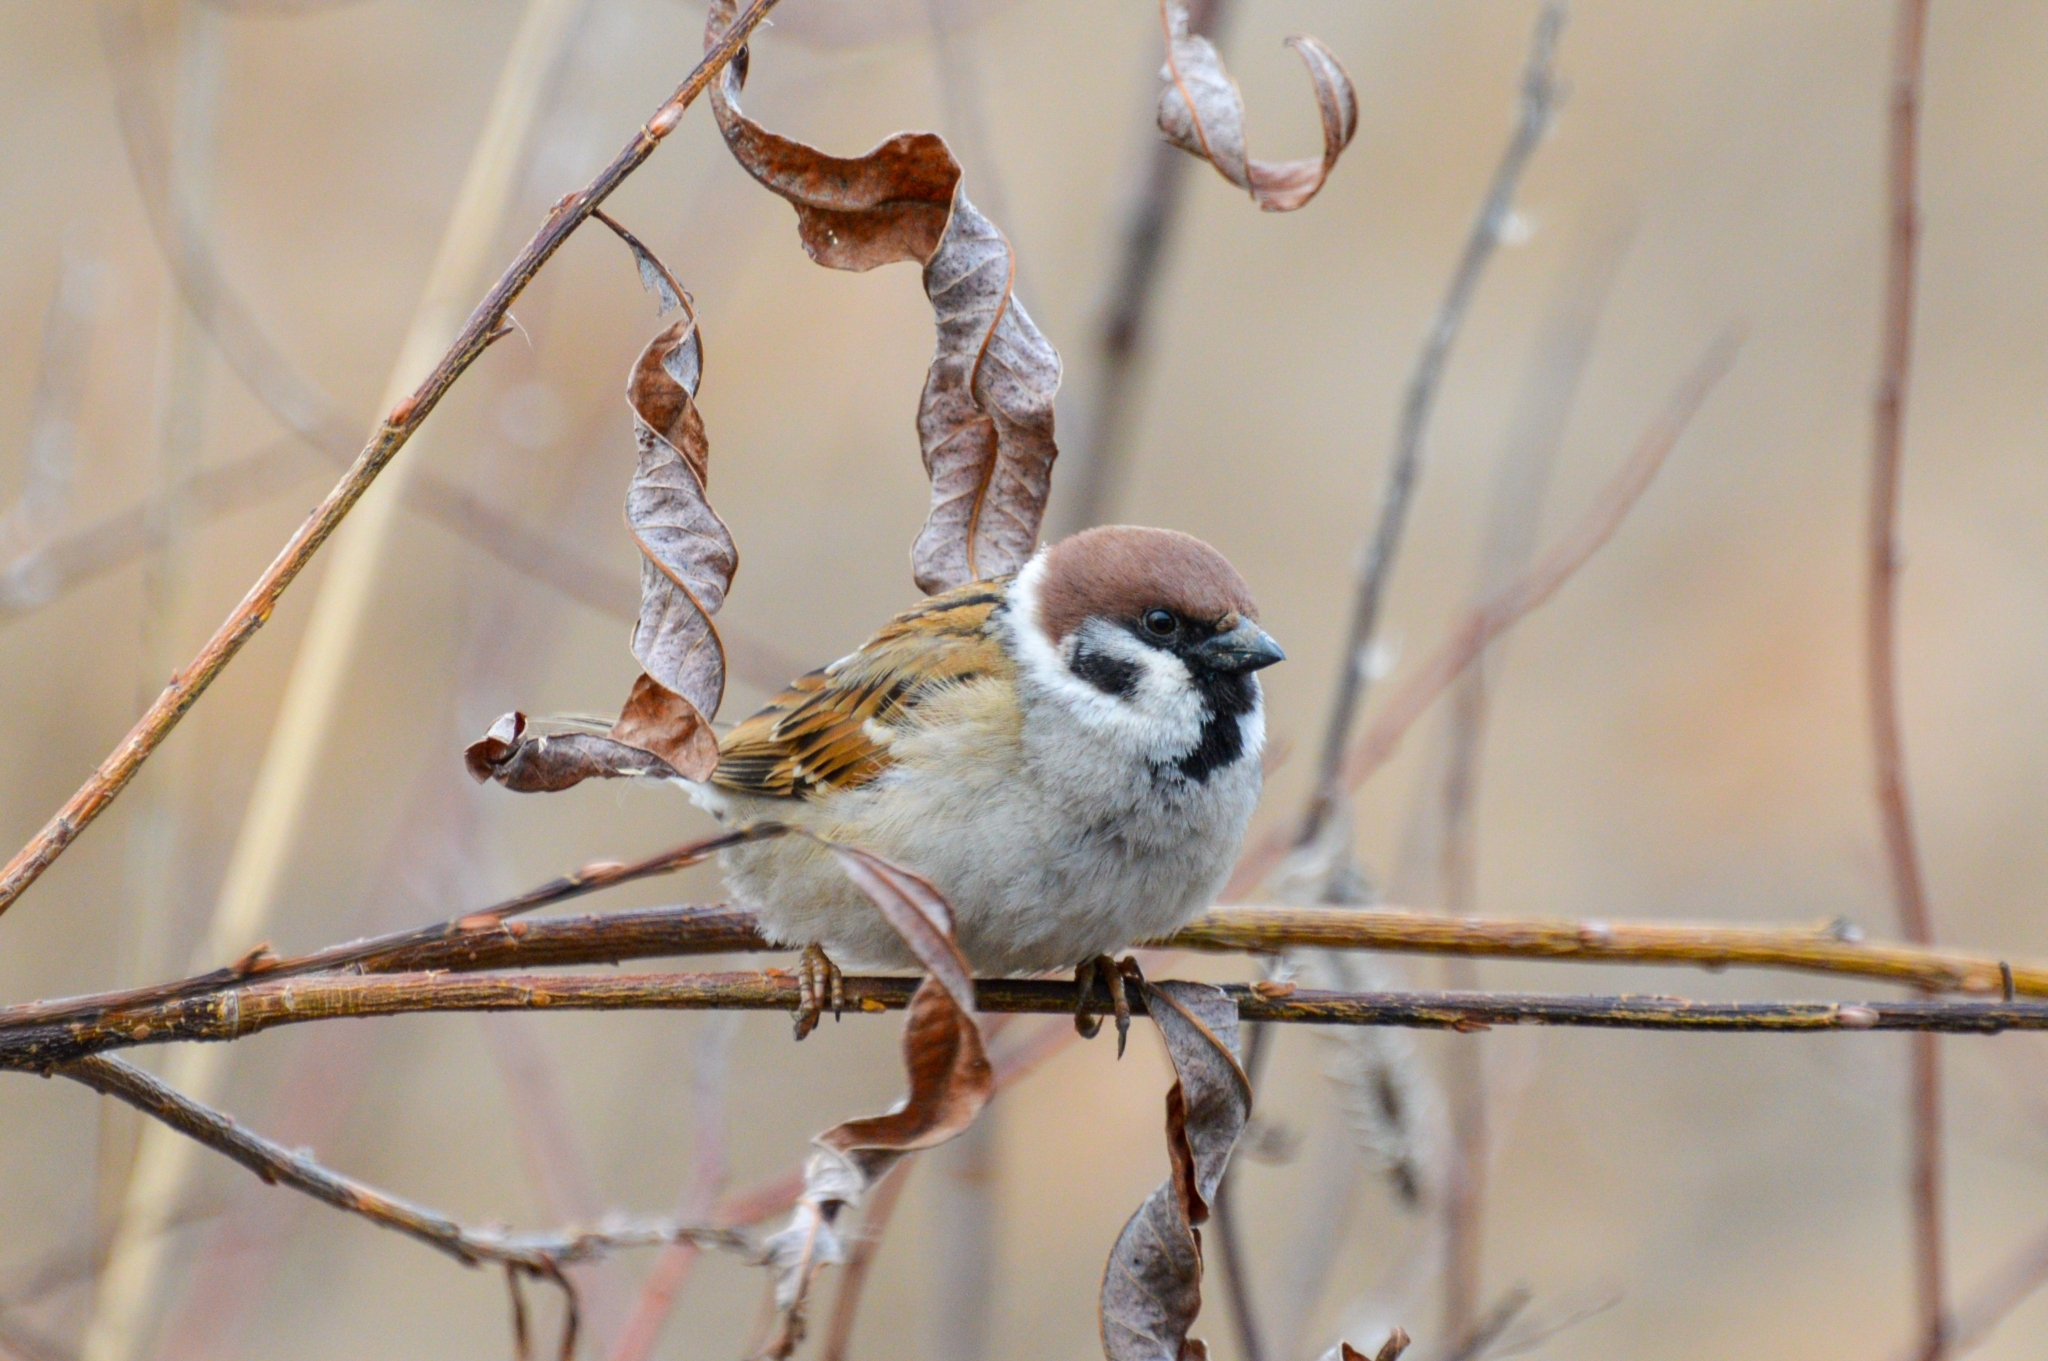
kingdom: Animalia
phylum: Chordata
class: Aves
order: Passeriformes
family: Passeridae
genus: Passer
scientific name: Passer montanus
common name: Eurasian tree sparrow
